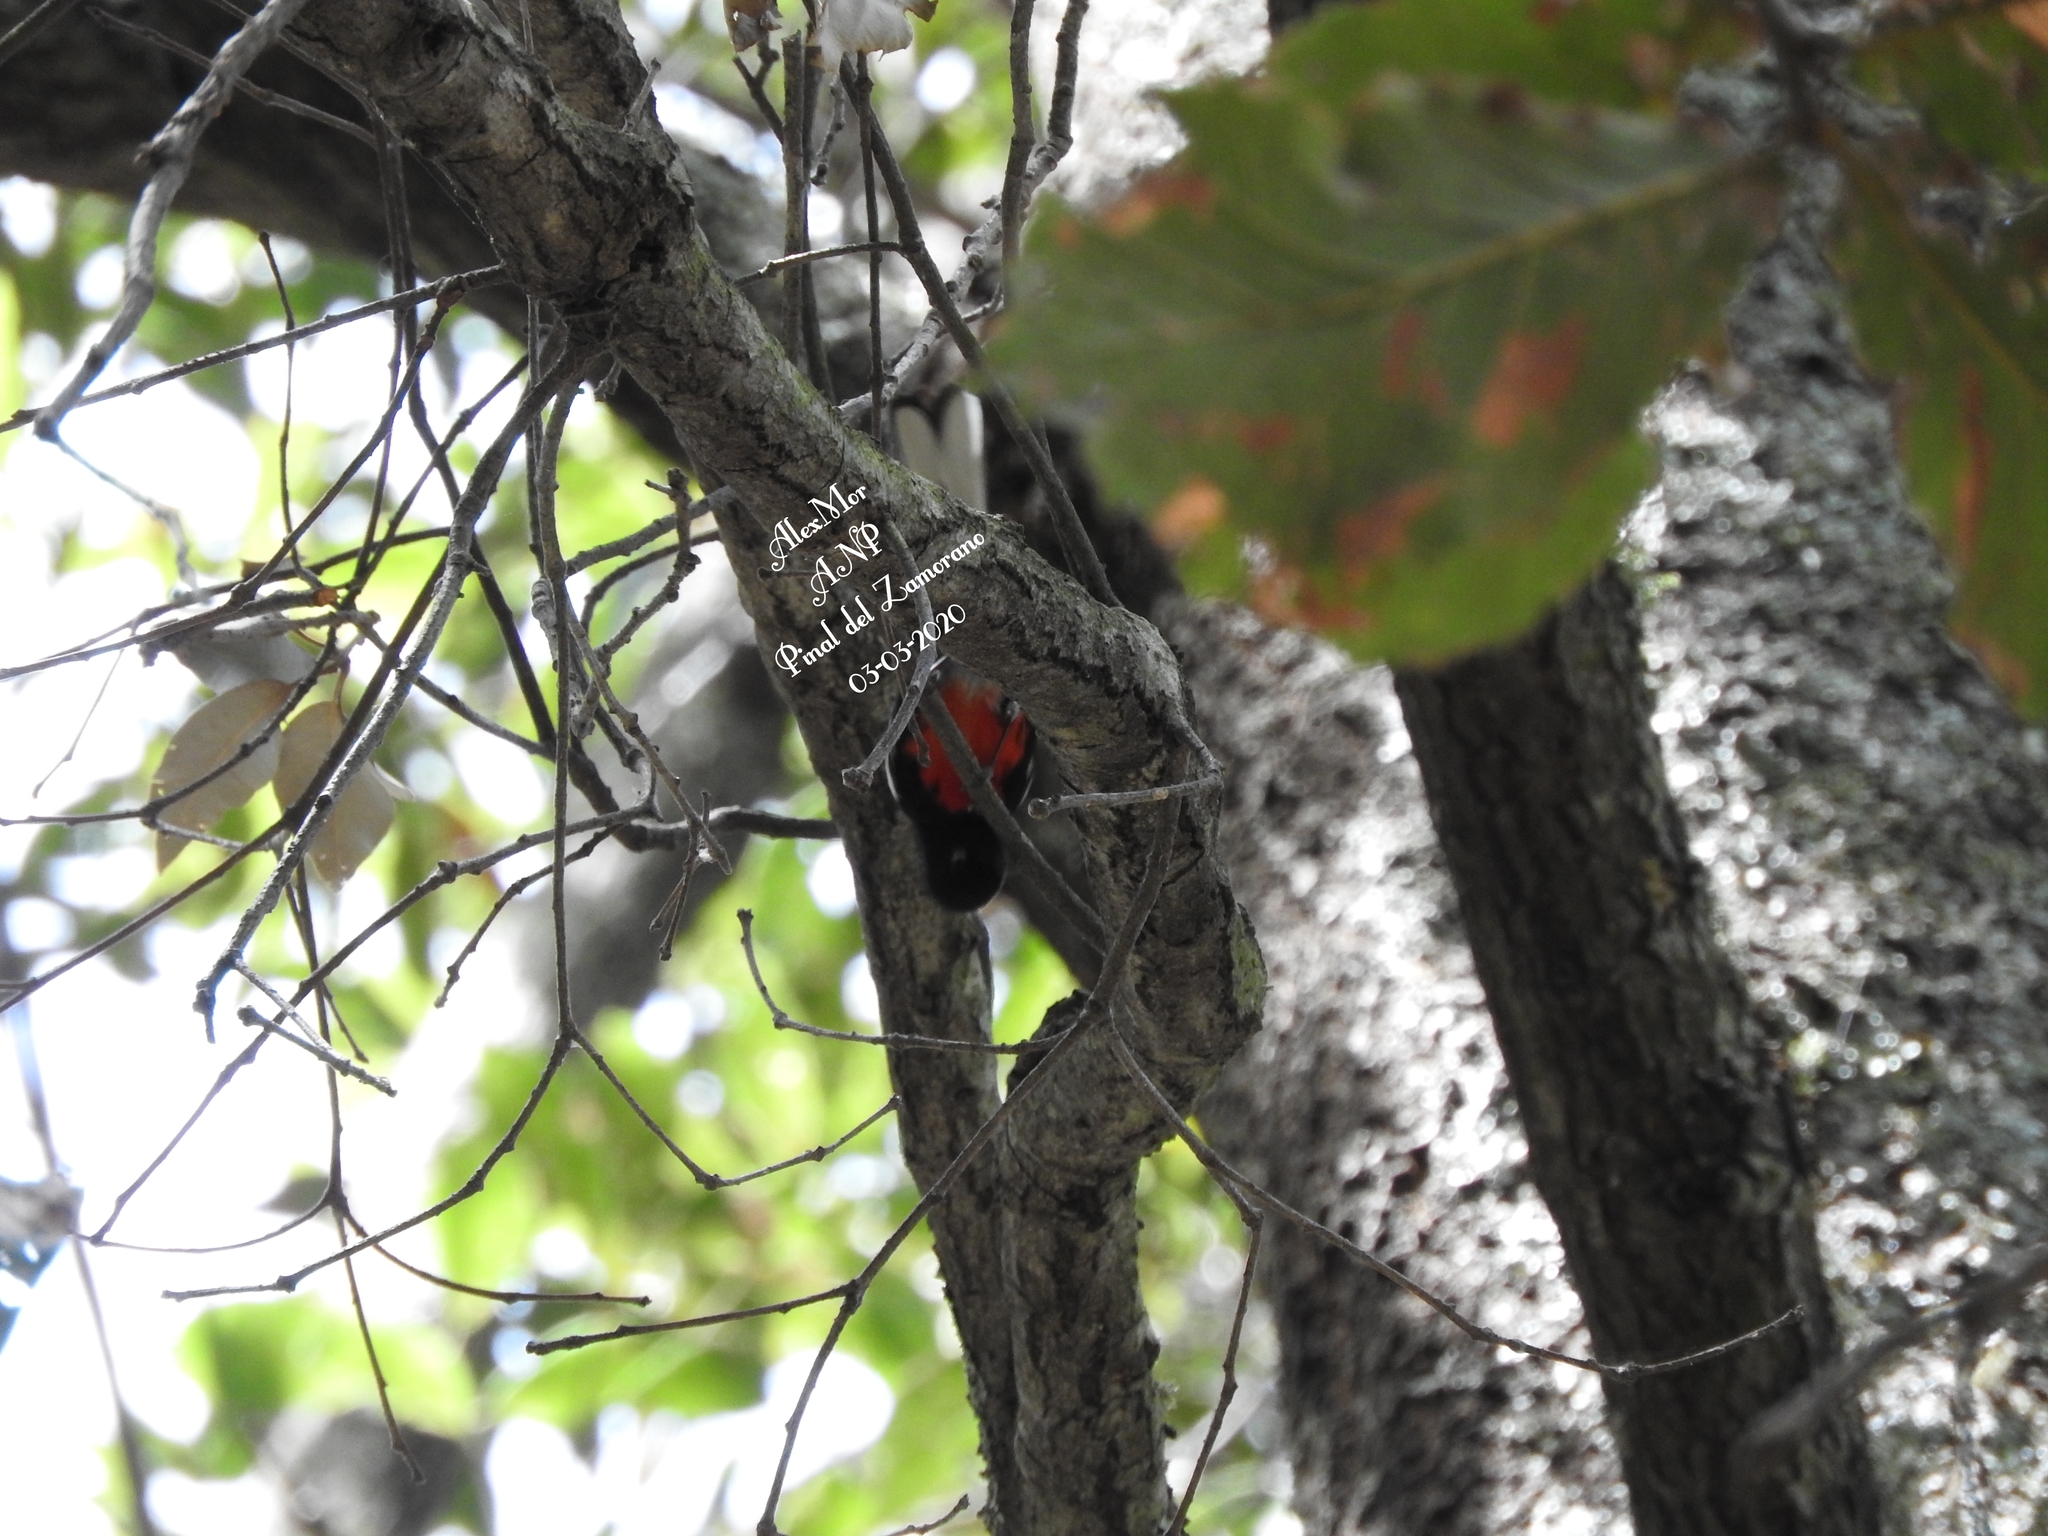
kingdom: Animalia
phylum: Chordata
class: Aves
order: Passeriformes
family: Parulidae
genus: Myioborus
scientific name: Myioborus pictus
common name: Painted whitestart
